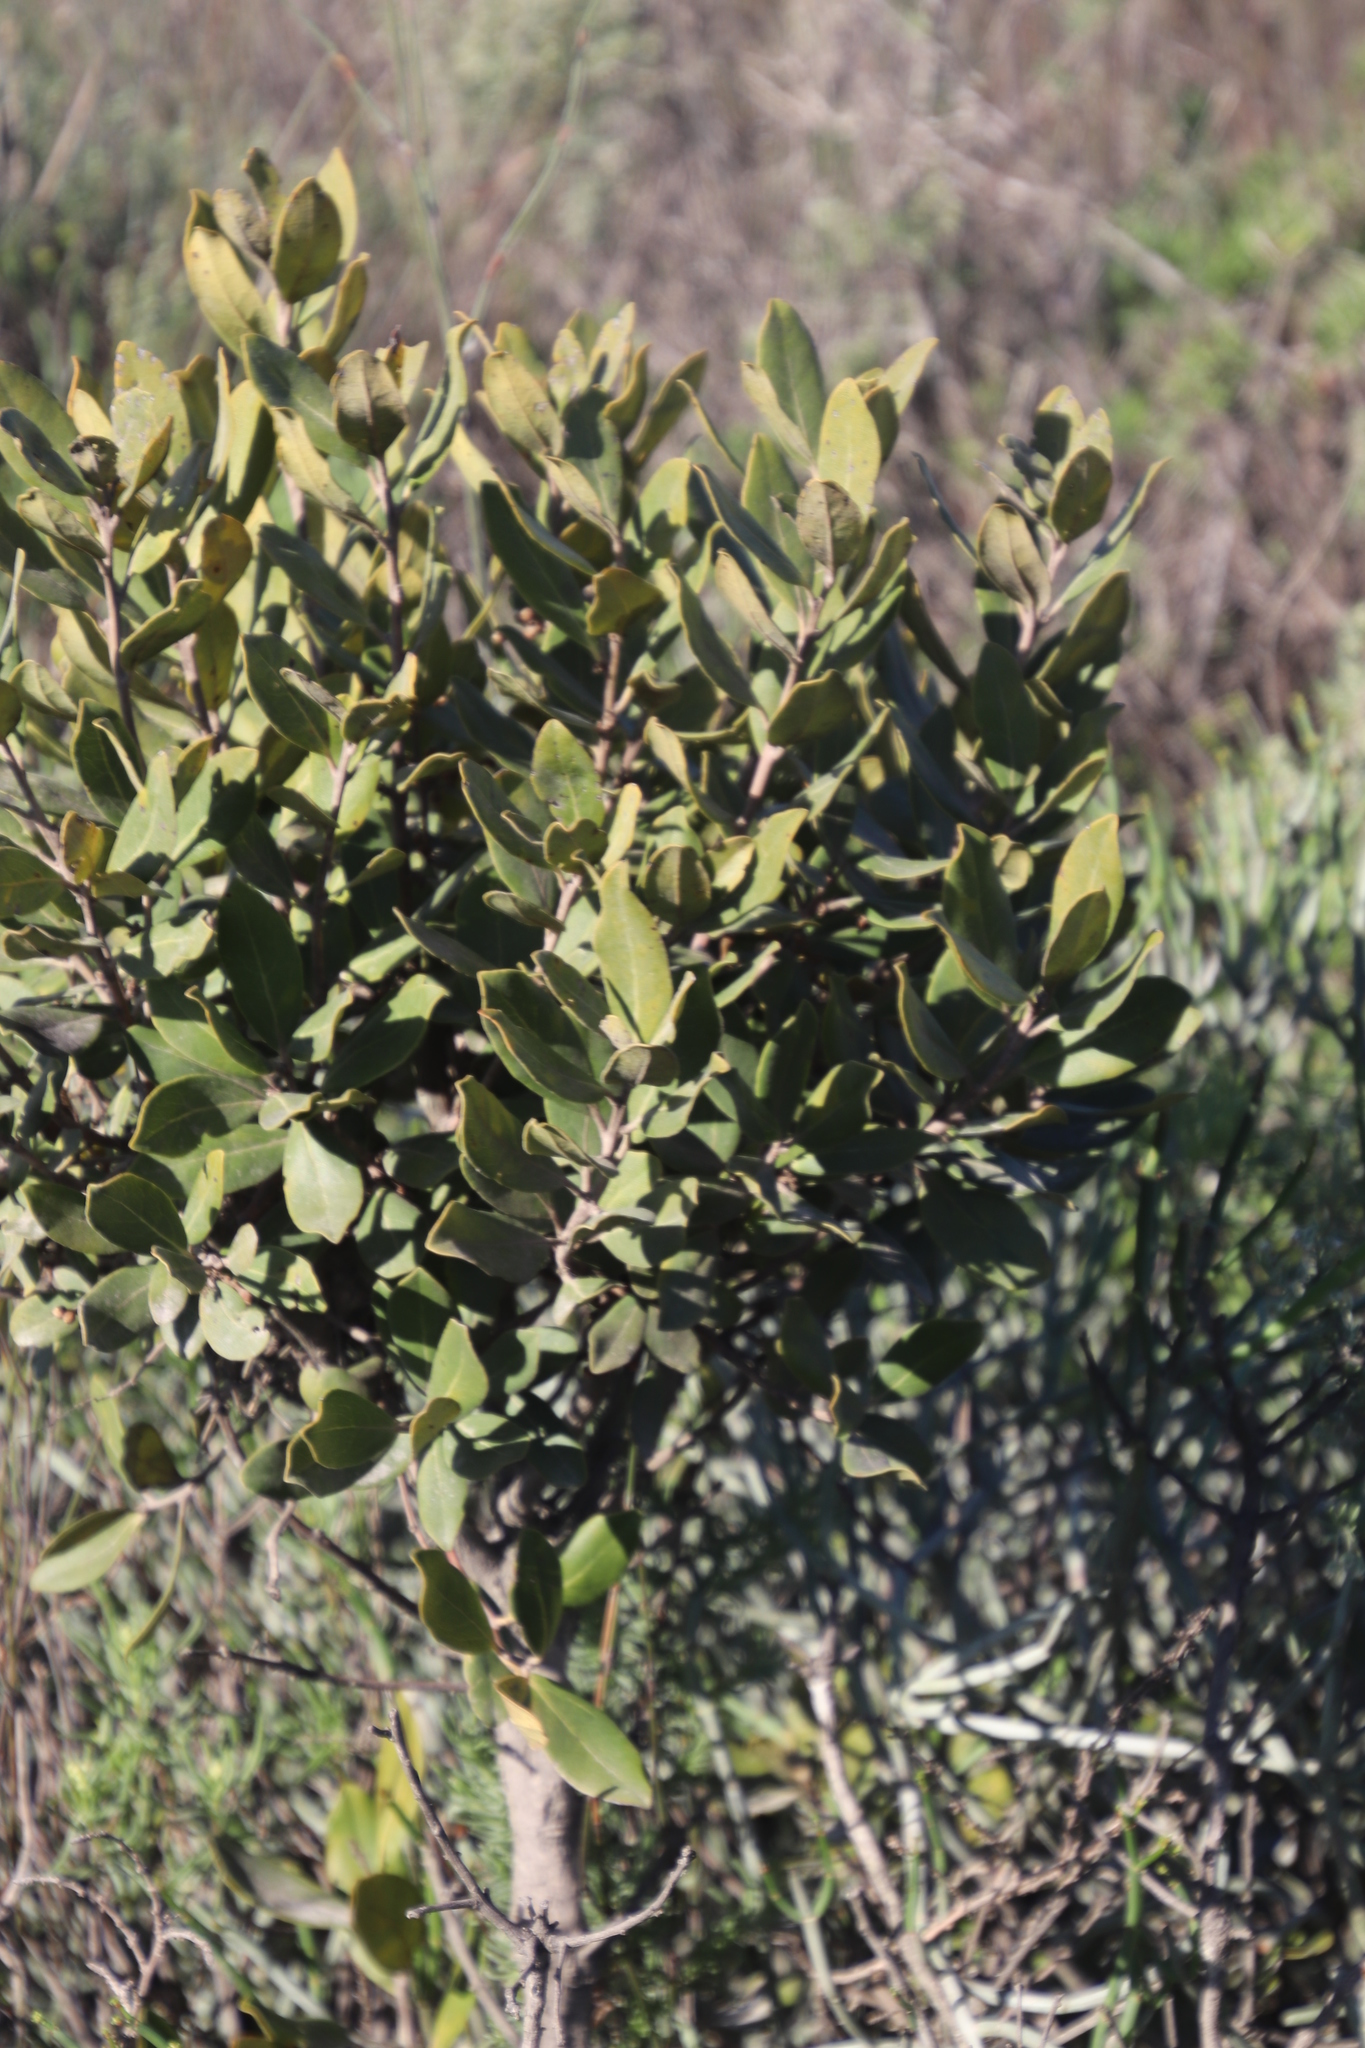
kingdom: Plantae
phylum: Tracheophyta
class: Magnoliopsida
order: Ericales
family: Ebenaceae
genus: Euclea
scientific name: Euclea tomentosa
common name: Honey guarri
